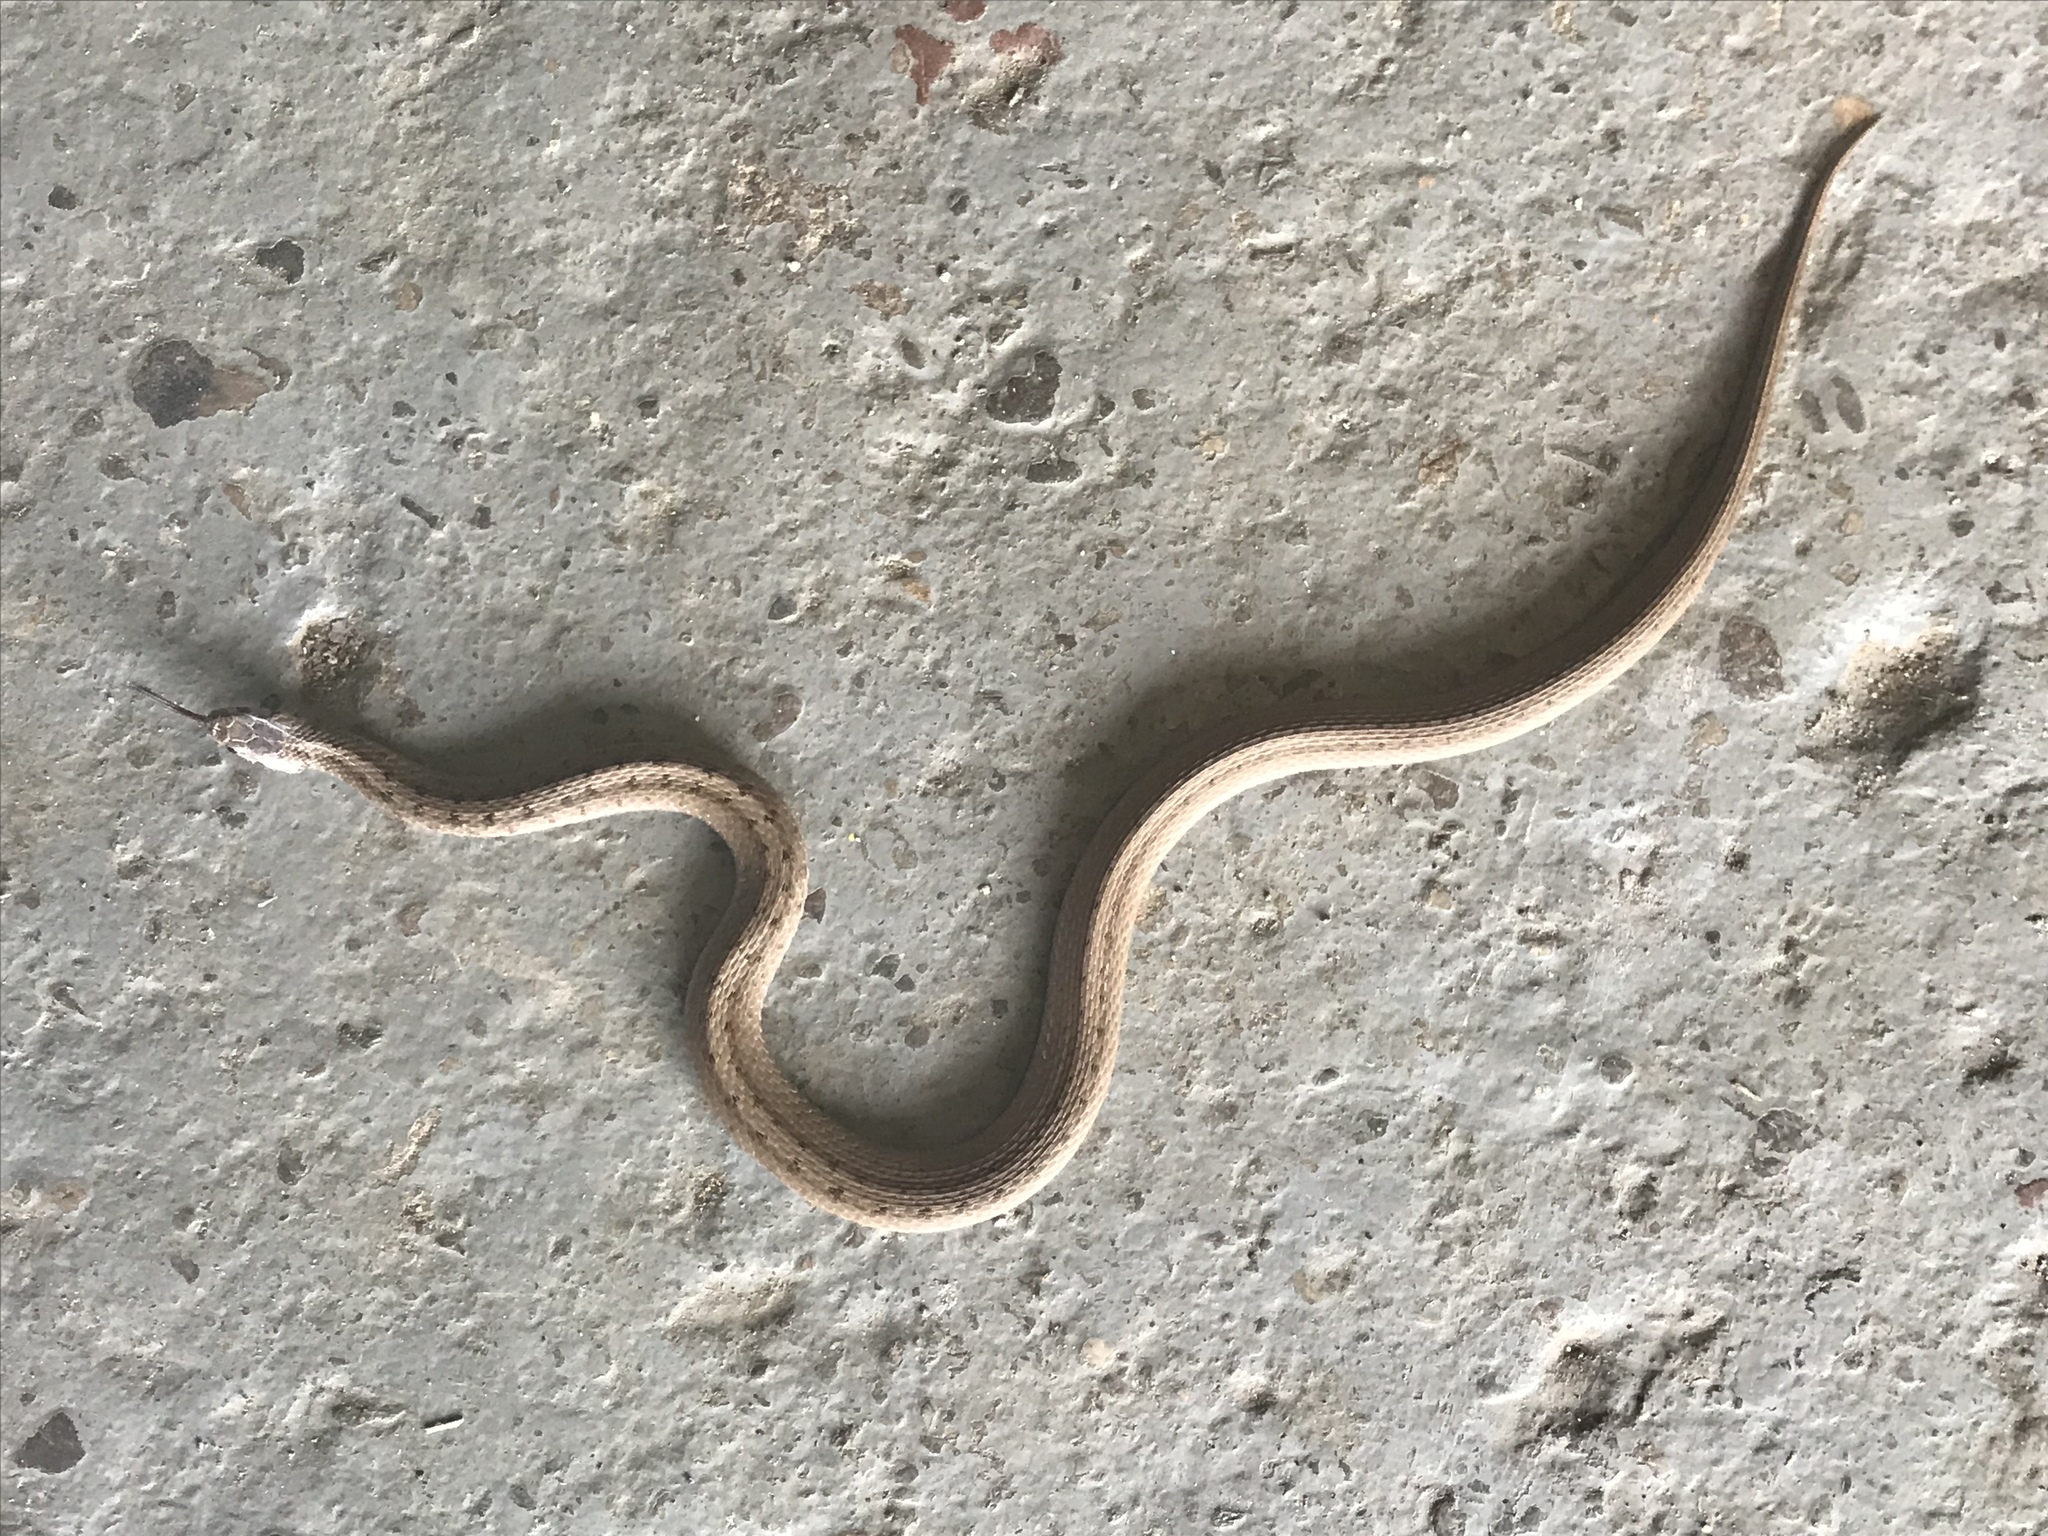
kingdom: Animalia
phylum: Chordata
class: Squamata
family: Colubridae
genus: Storeria
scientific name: Storeria dekayi
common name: (dekay’s) brown snake
